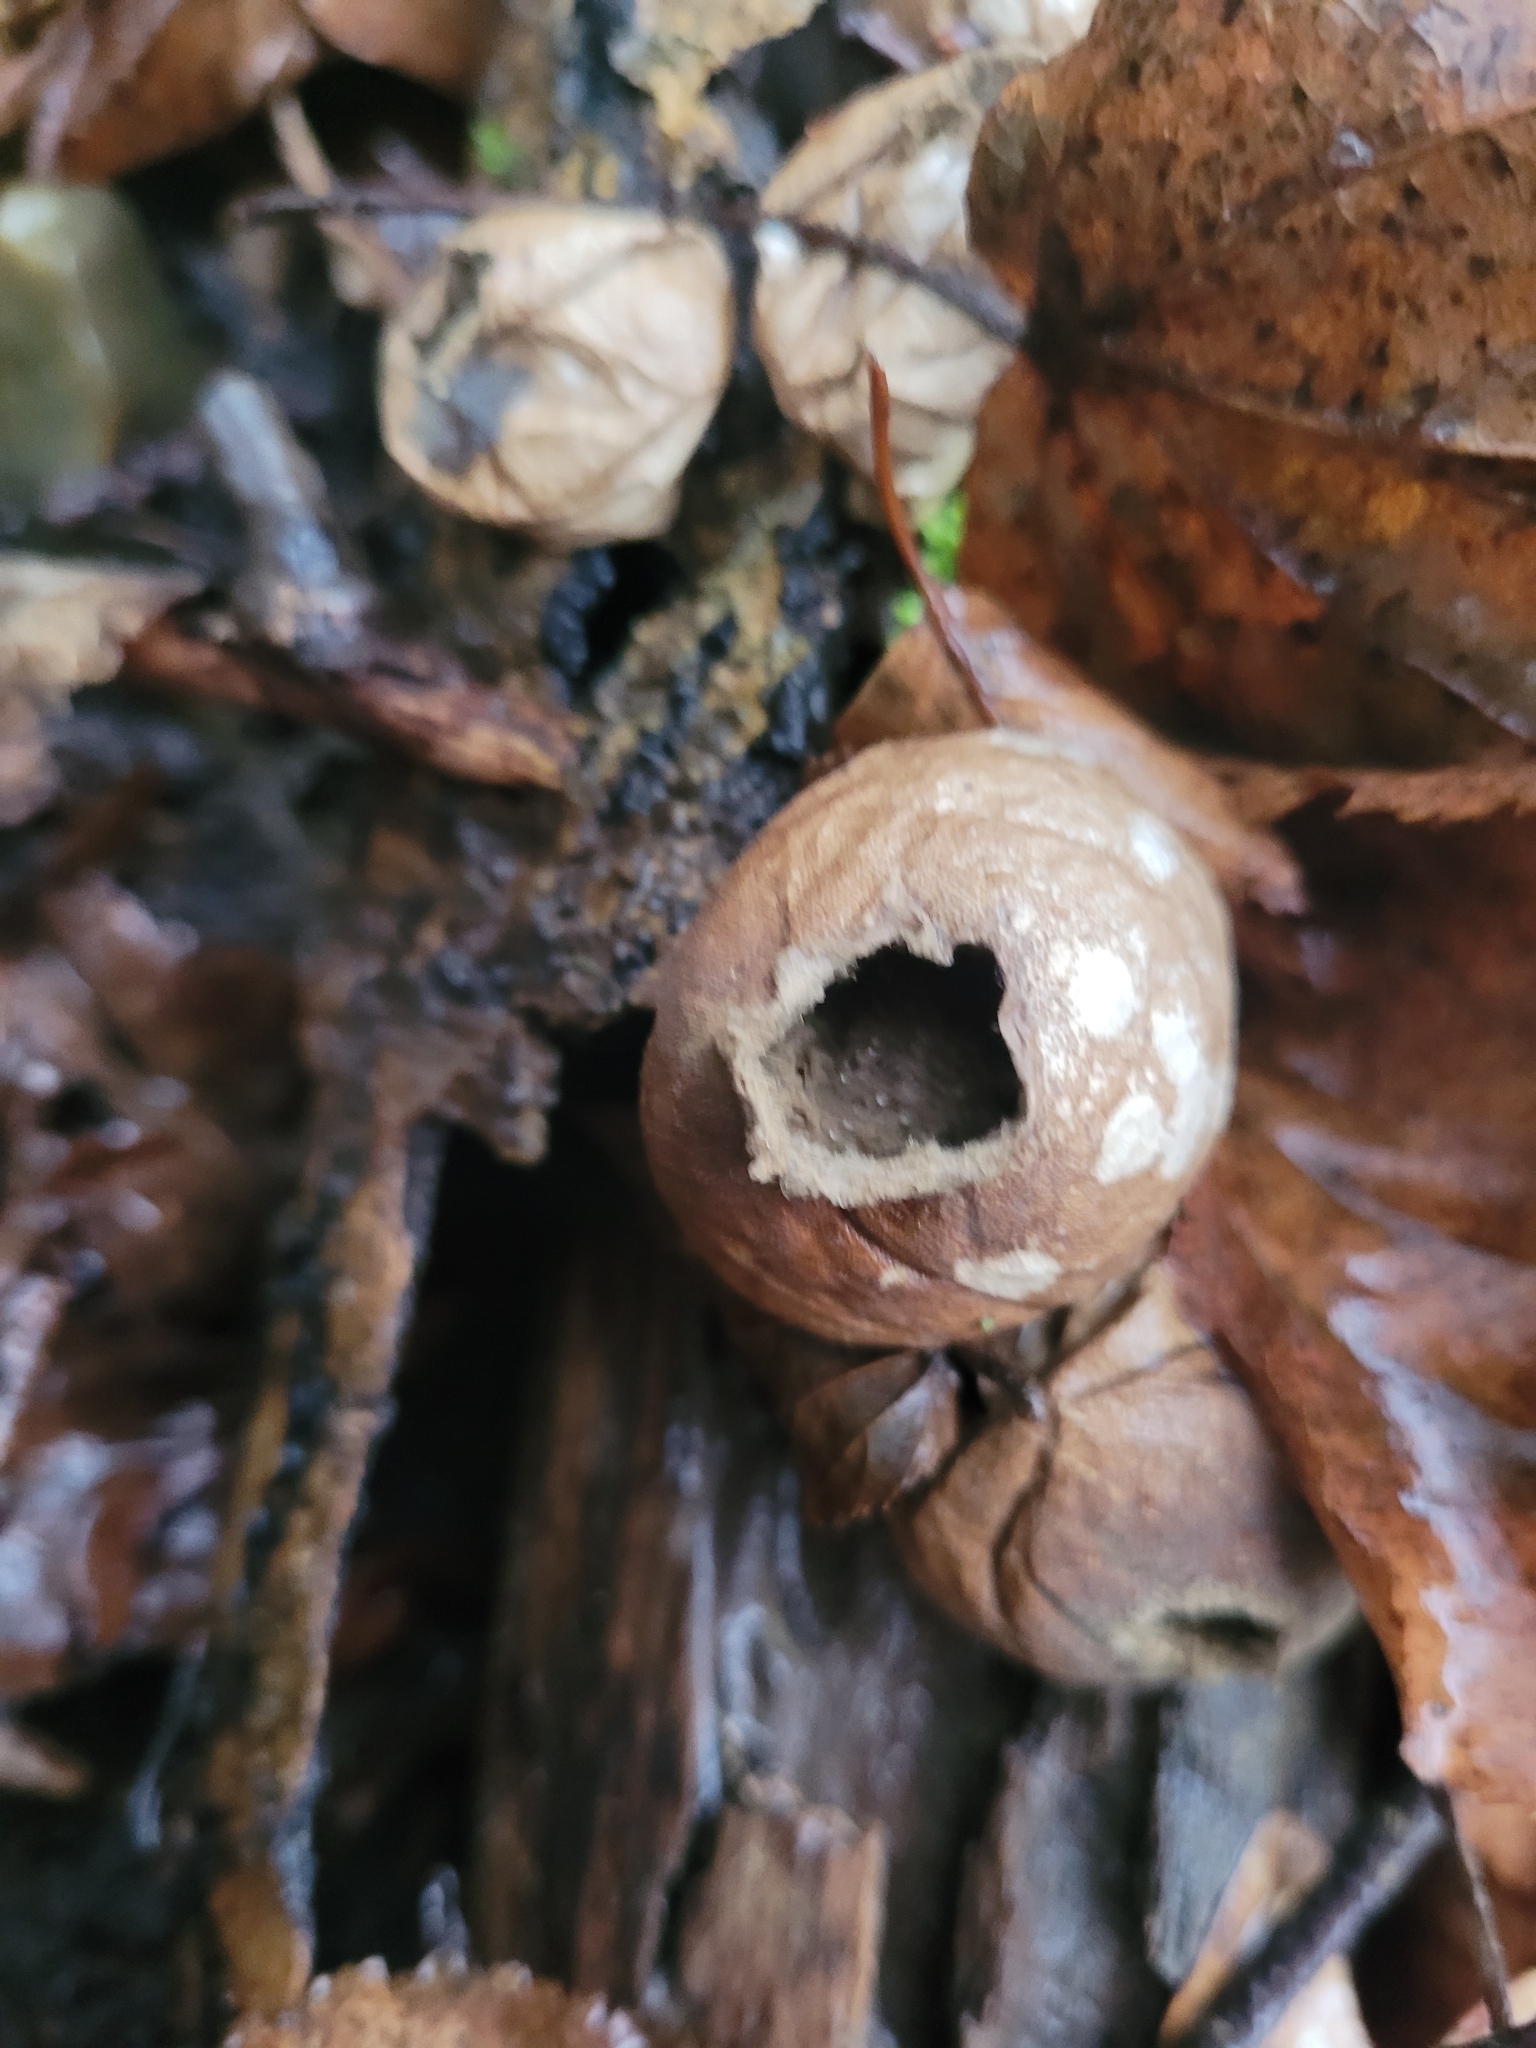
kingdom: Fungi
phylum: Basidiomycota
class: Agaricomycetes
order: Agaricales
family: Lycoperdaceae
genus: Apioperdon
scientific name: Apioperdon pyriforme
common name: Pear-shaped puffball
